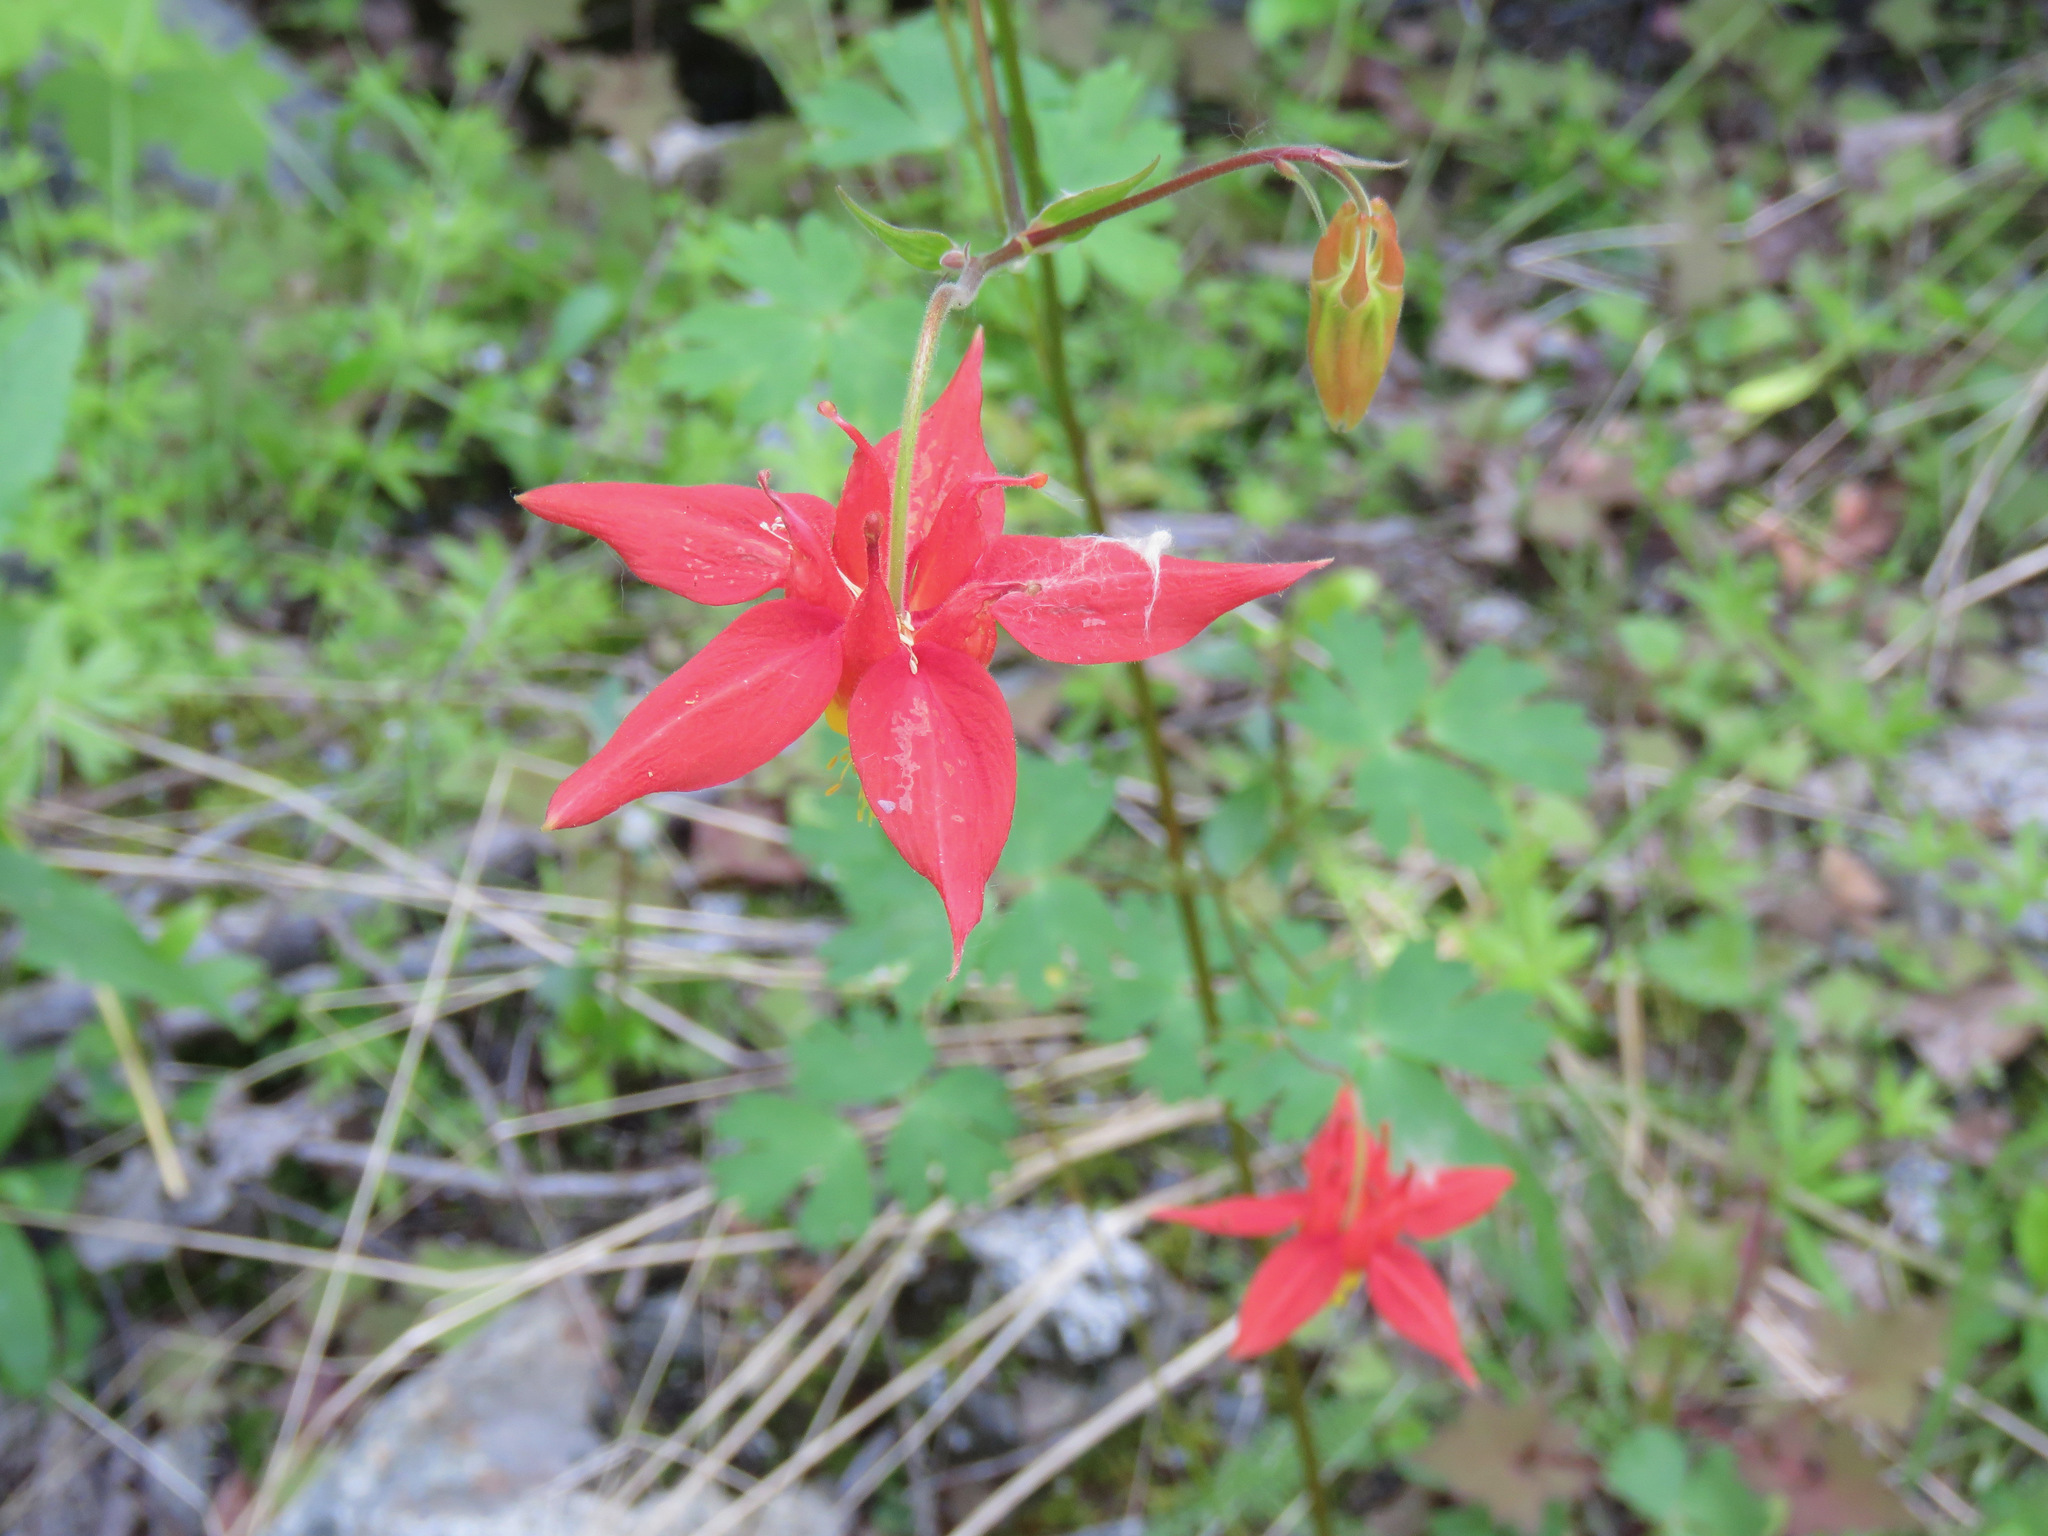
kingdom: Plantae
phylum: Tracheophyta
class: Magnoliopsida
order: Ranunculales
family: Ranunculaceae
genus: Aquilegia
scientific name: Aquilegia formosa
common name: Sitka columbine
